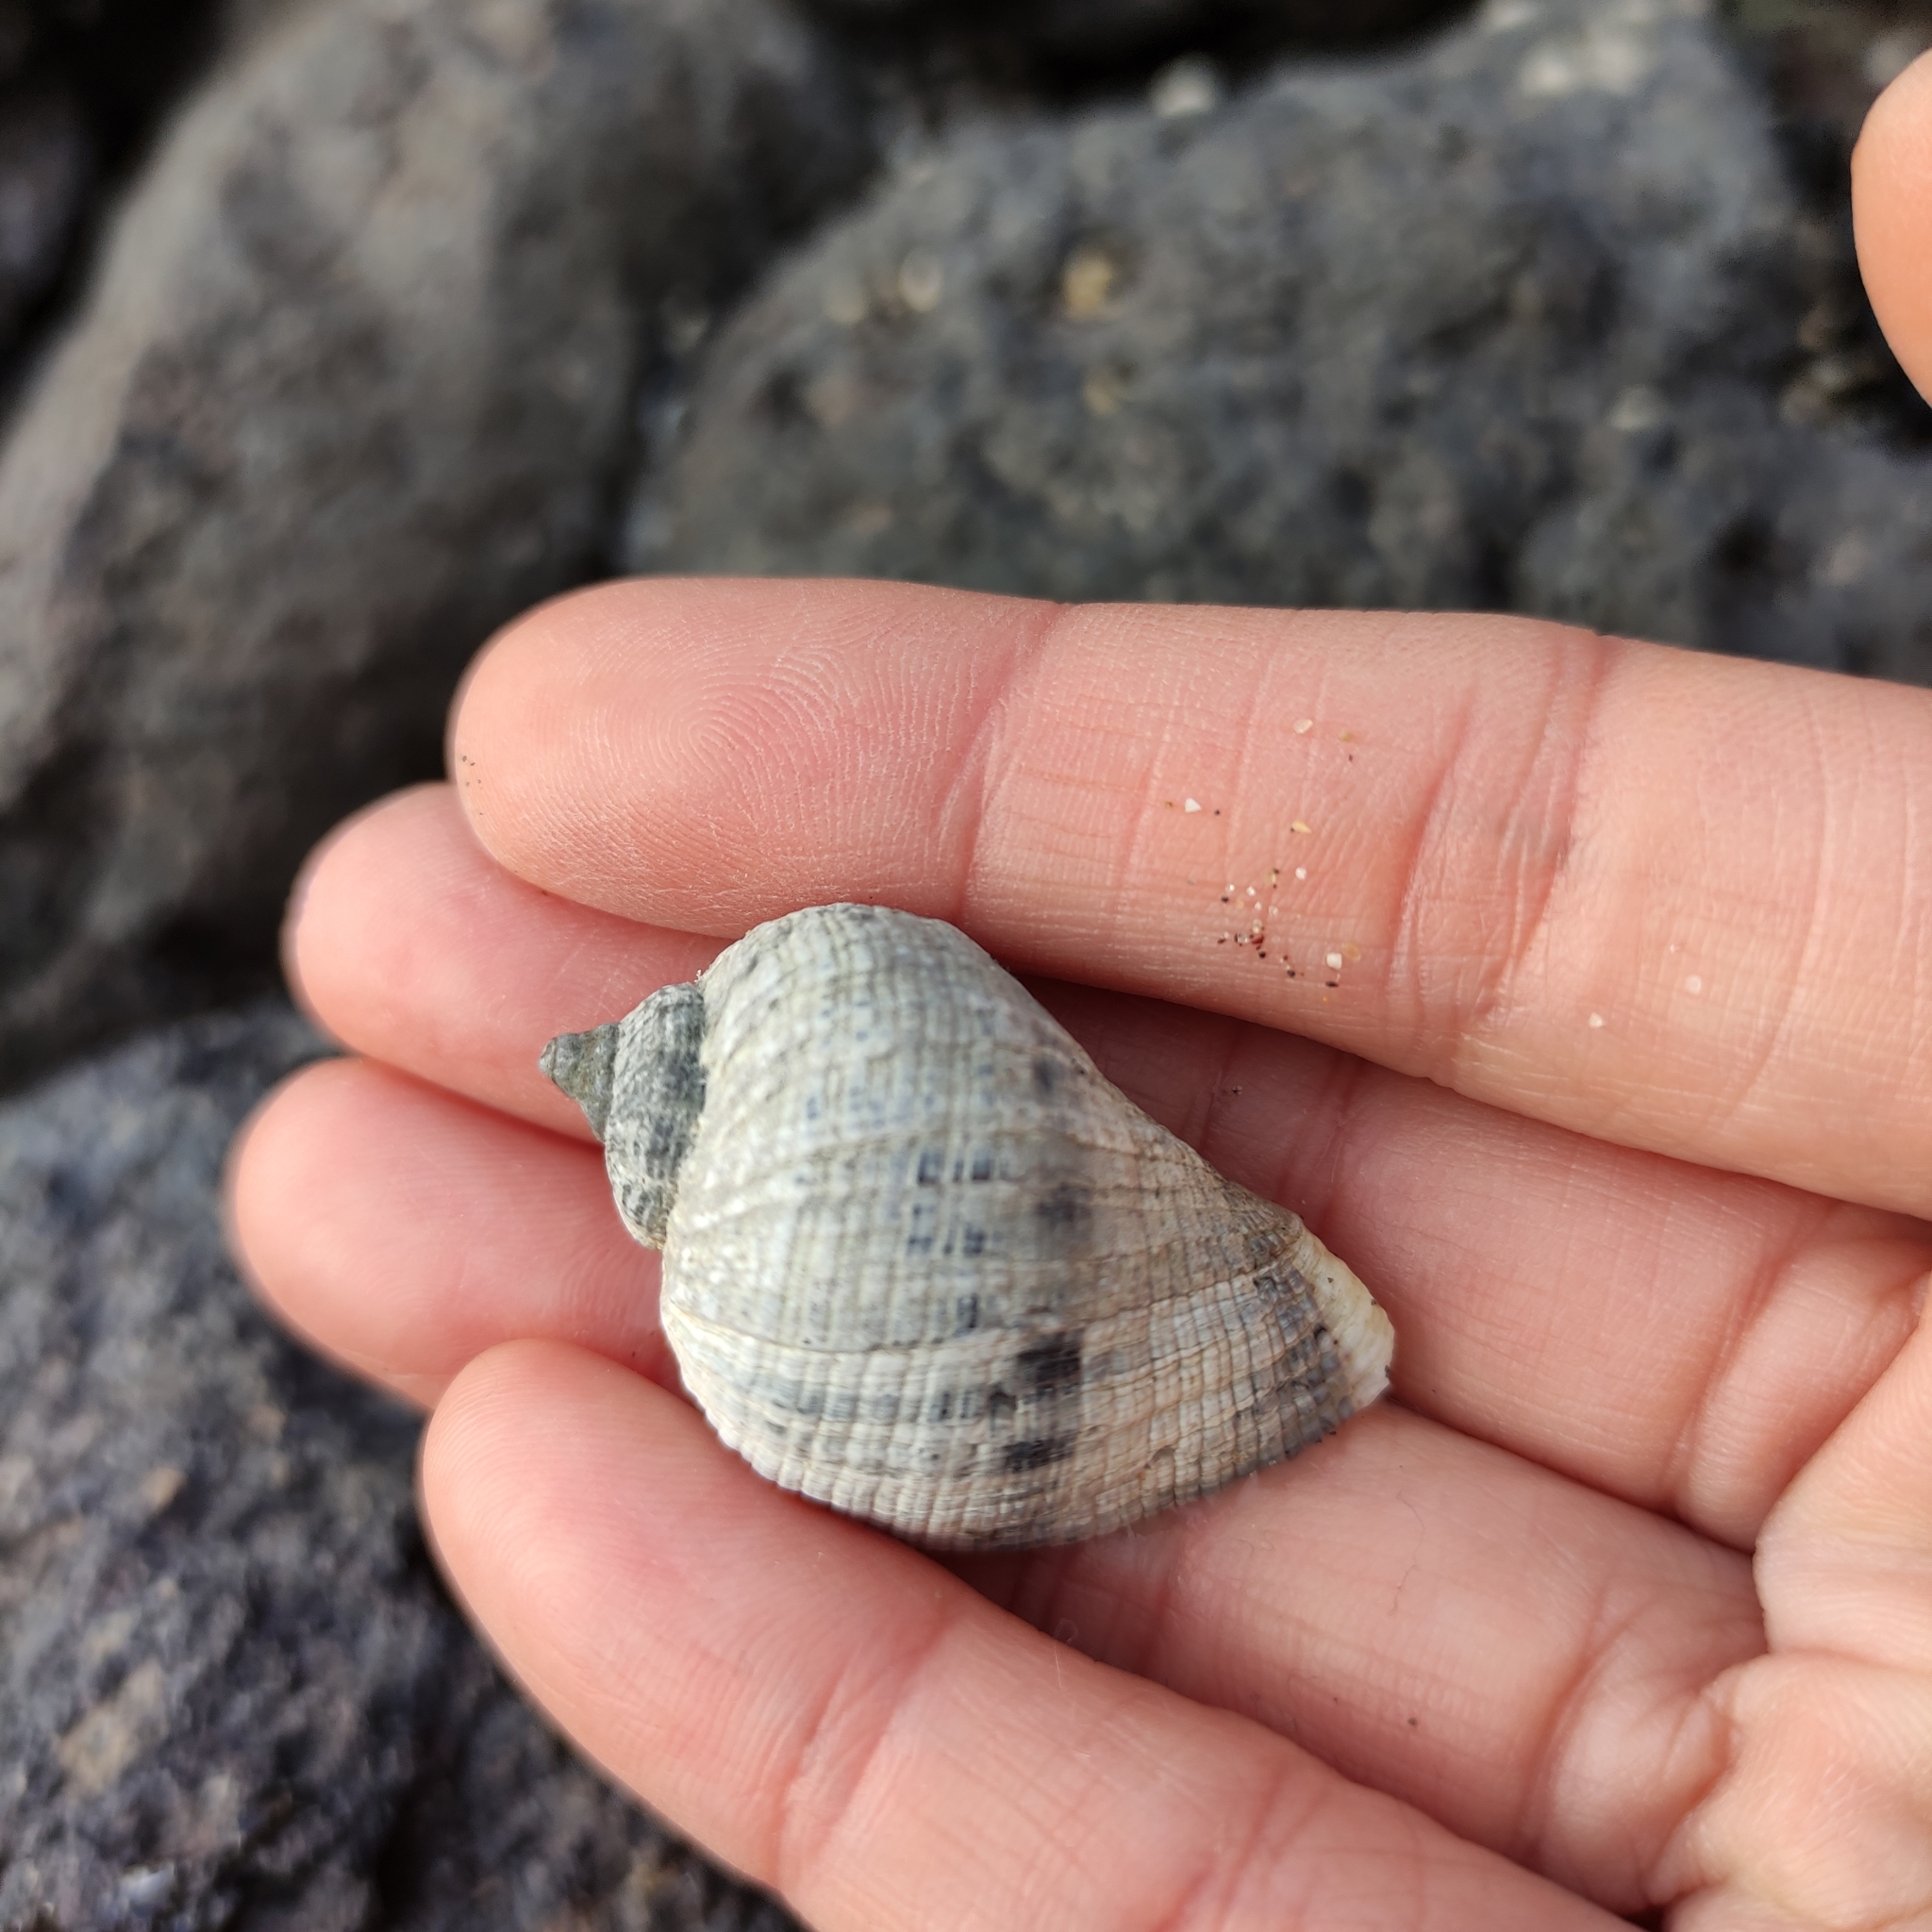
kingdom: Animalia
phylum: Mollusca
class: Gastropoda
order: Neogastropoda
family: Muricidae
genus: Haustrum
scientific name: Haustrum haustorium
